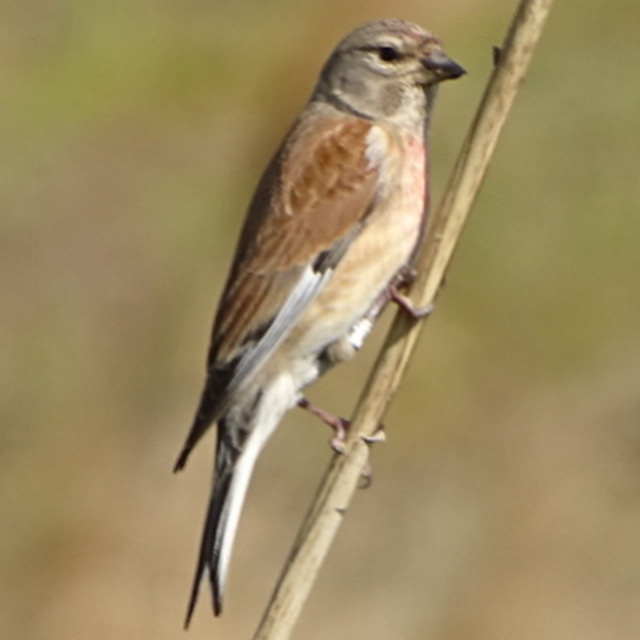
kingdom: Animalia
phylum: Chordata
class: Aves
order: Passeriformes
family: Fringillidae
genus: Linaria
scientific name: Linaria cannabina
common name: Common linnet
